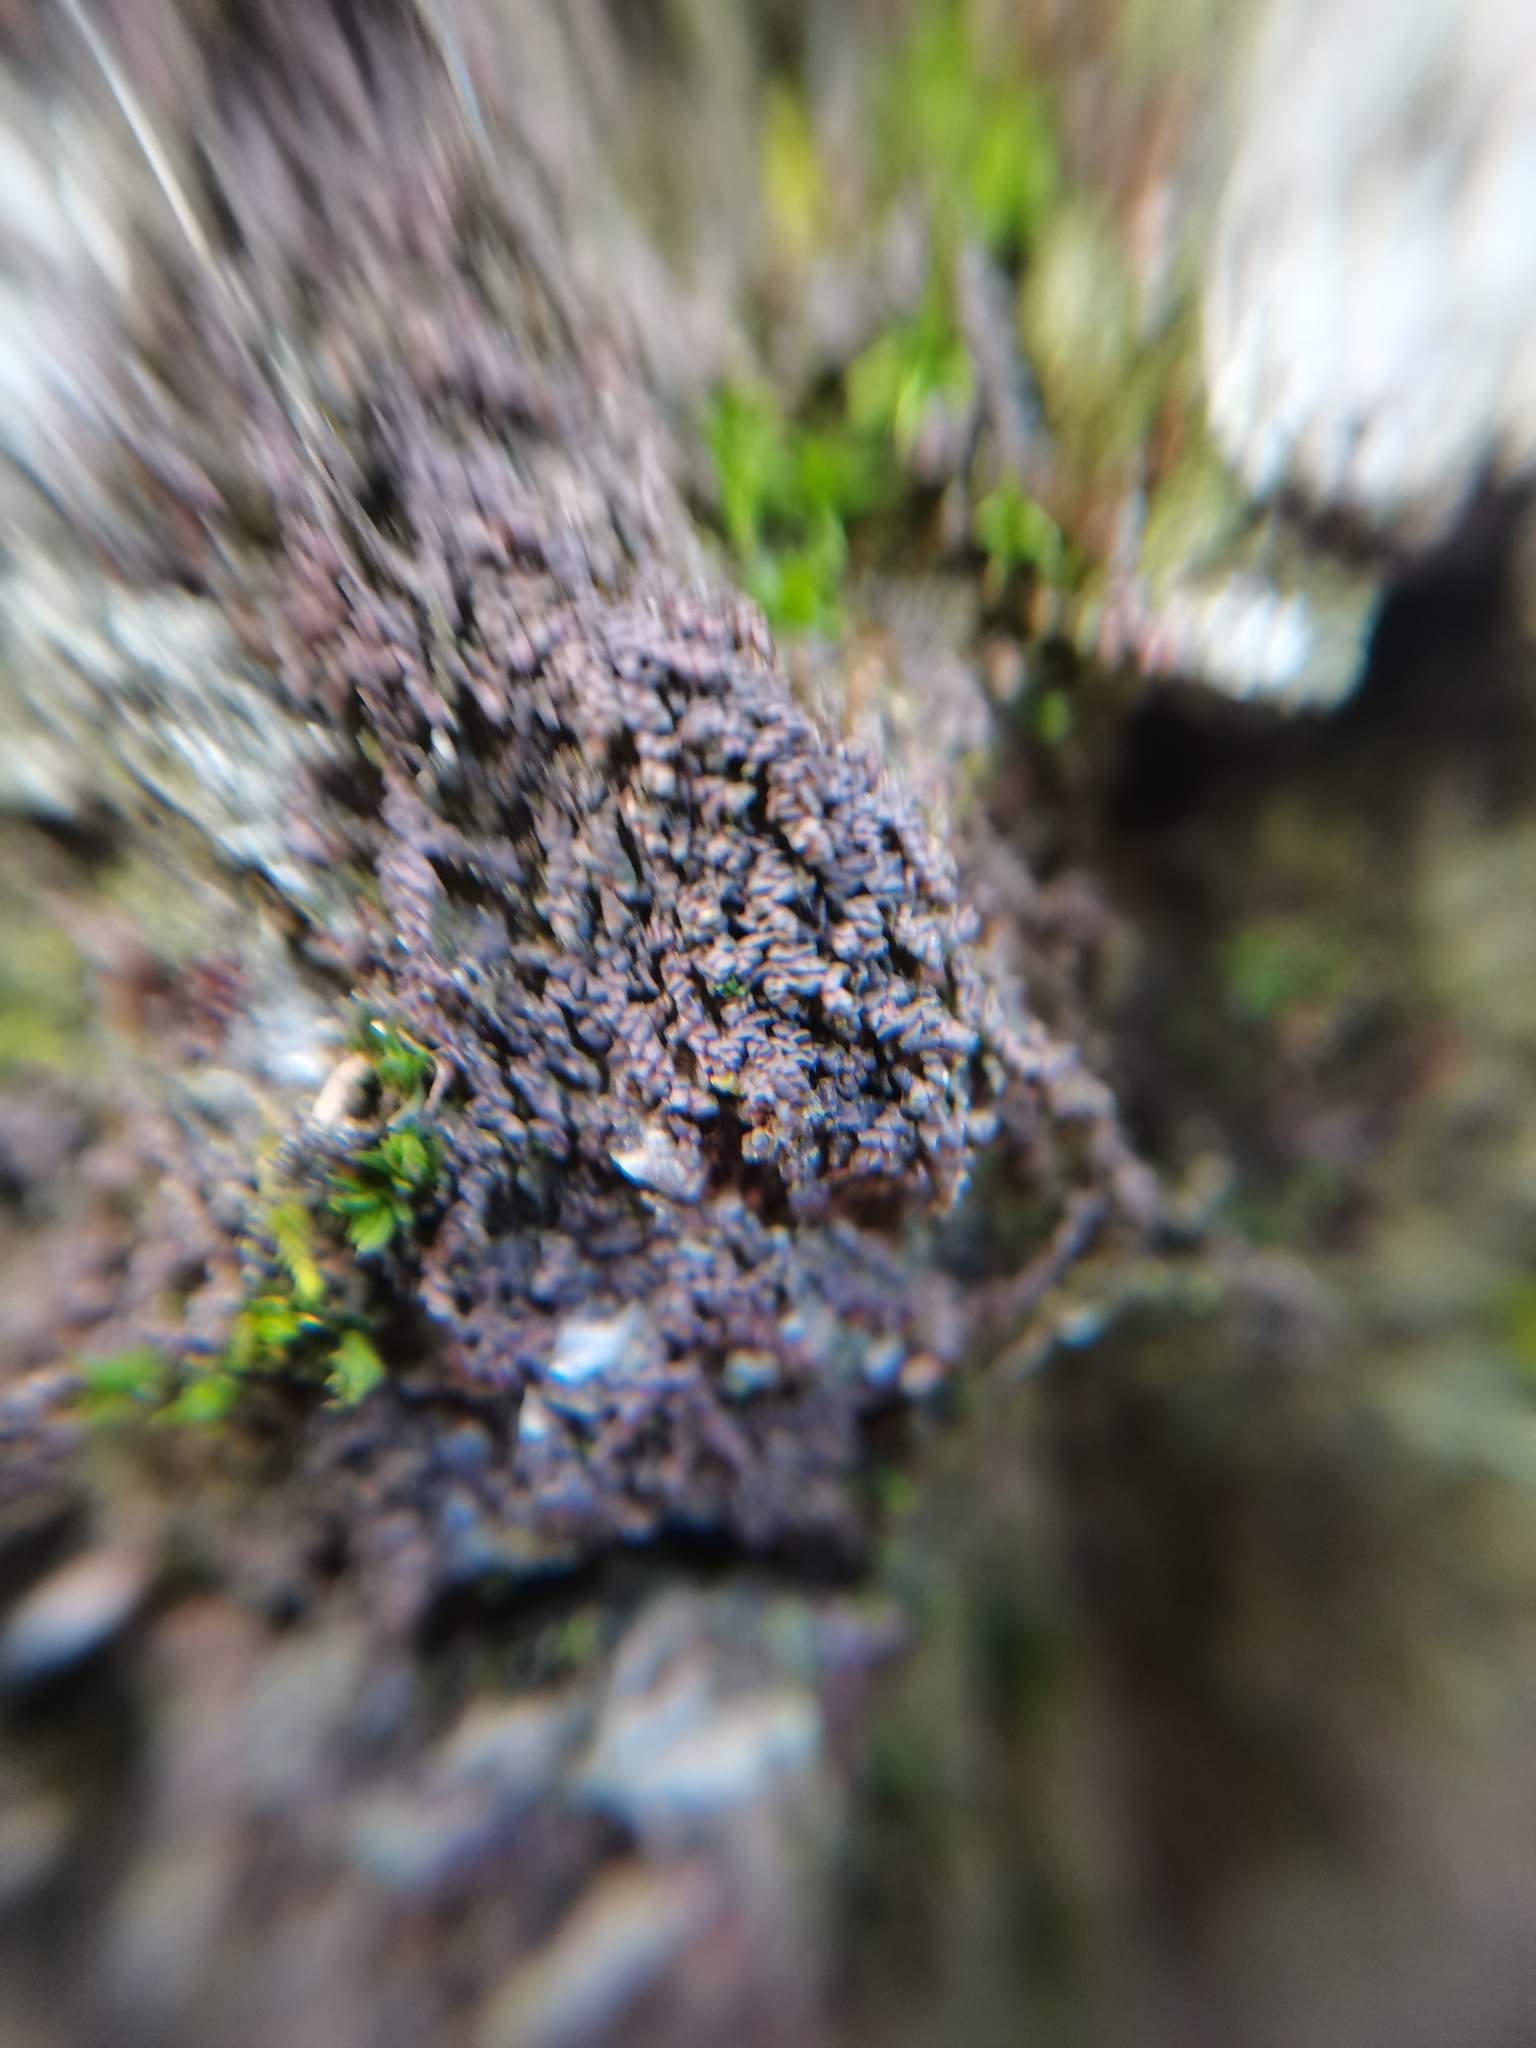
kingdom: Plantae
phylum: Marchantiophyta
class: Jungermanniopsida
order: Porellales
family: Frullaniaceae
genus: Frullania
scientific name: Frullania dilatata
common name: Dilated scalewort
